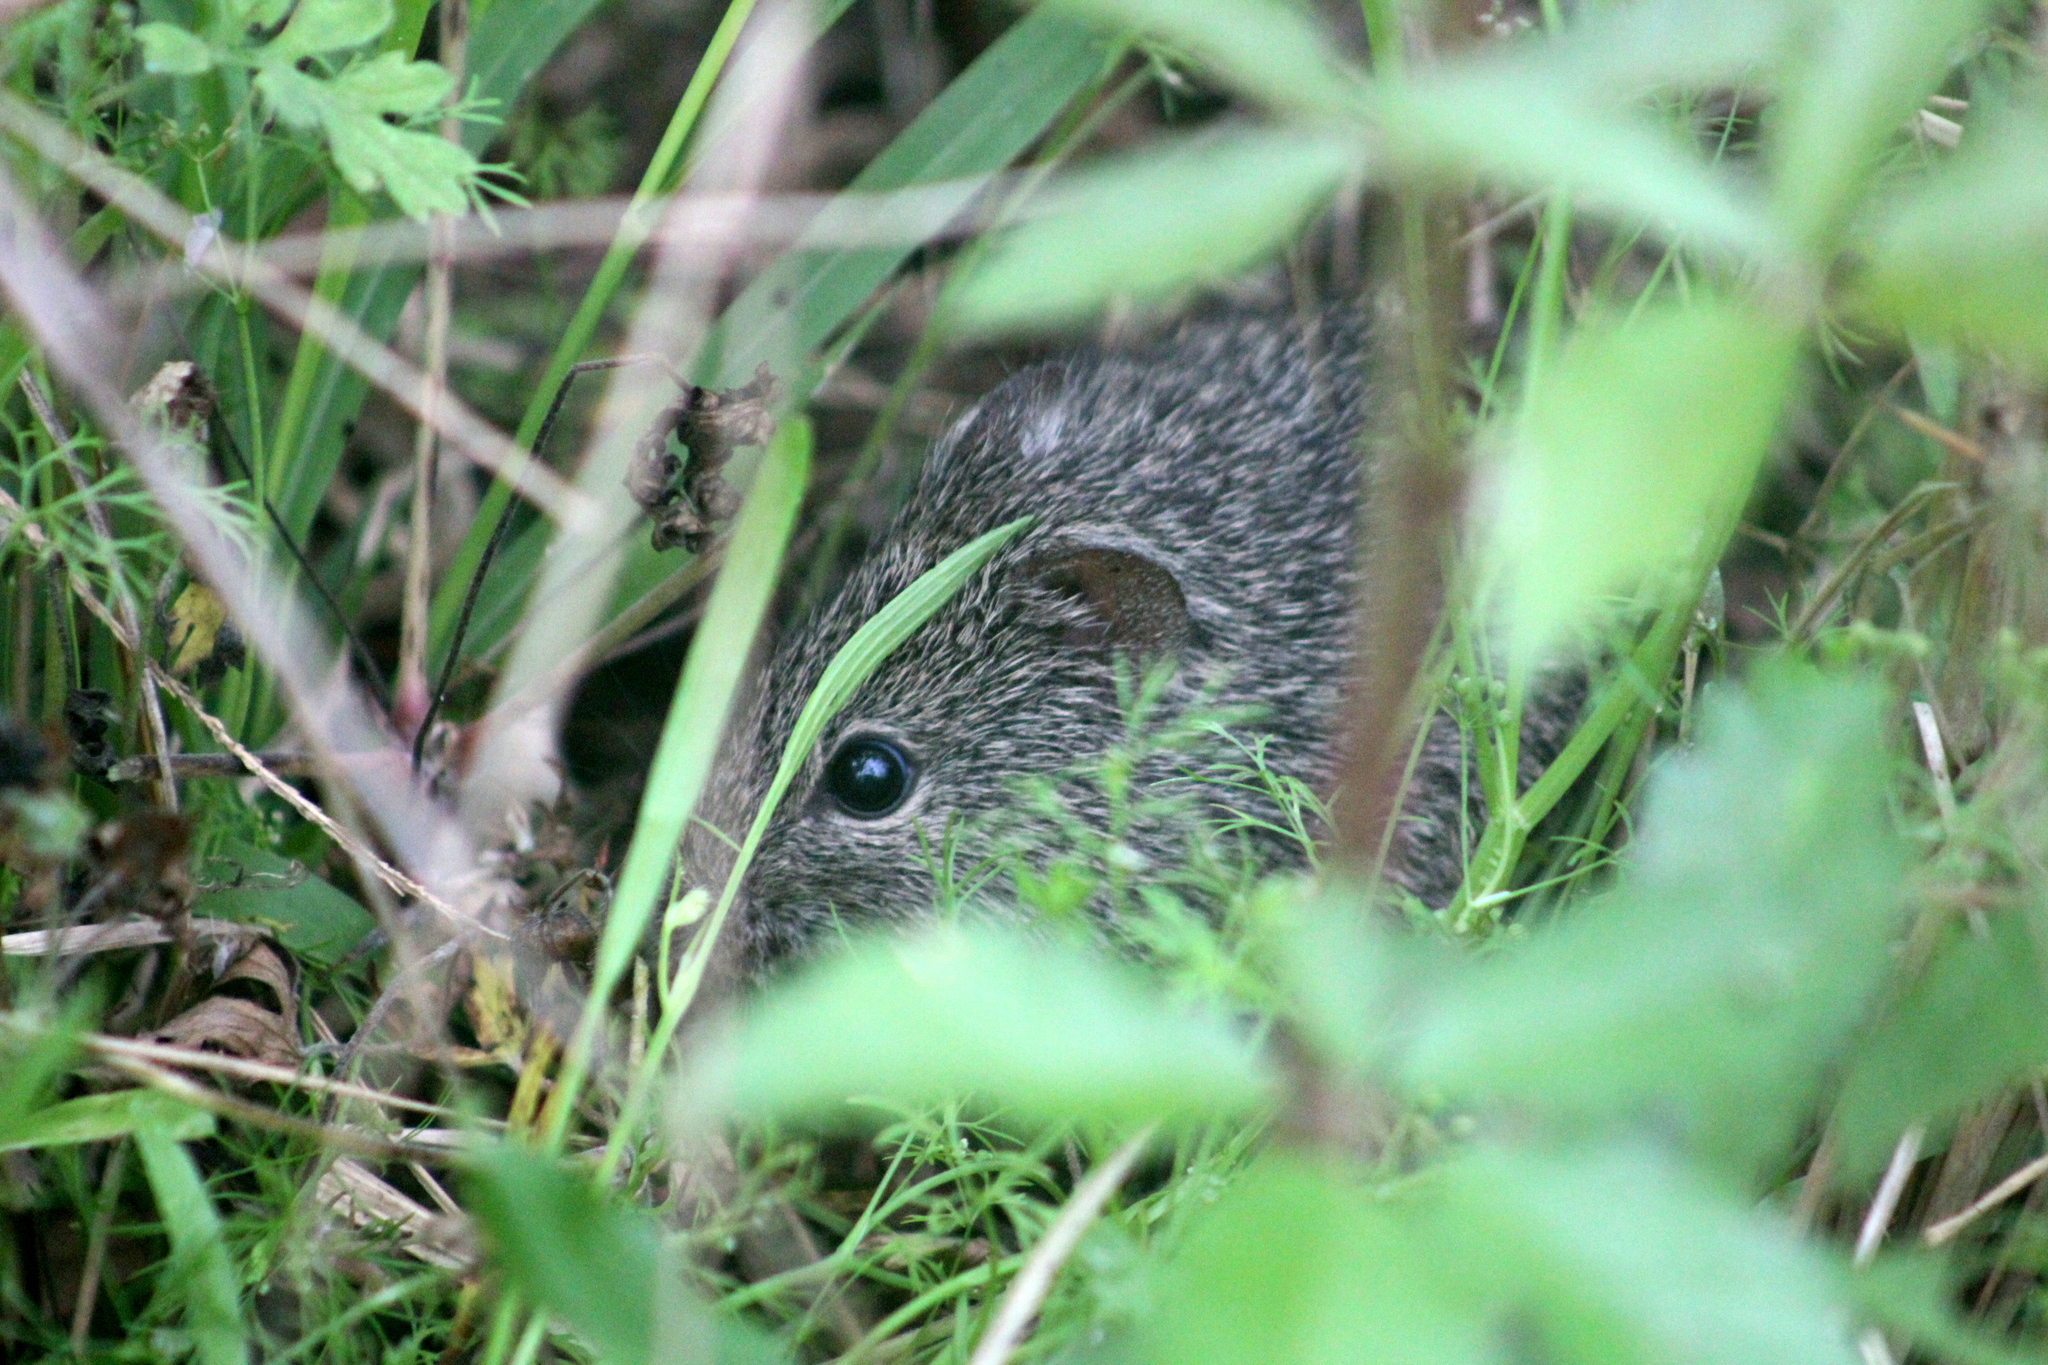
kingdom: Animalia
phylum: Chordata
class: Mammalia
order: Rodentia
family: Cricetidae
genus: Sigmodon
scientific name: Sigmodon hispidus
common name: Hispid cotton rat
